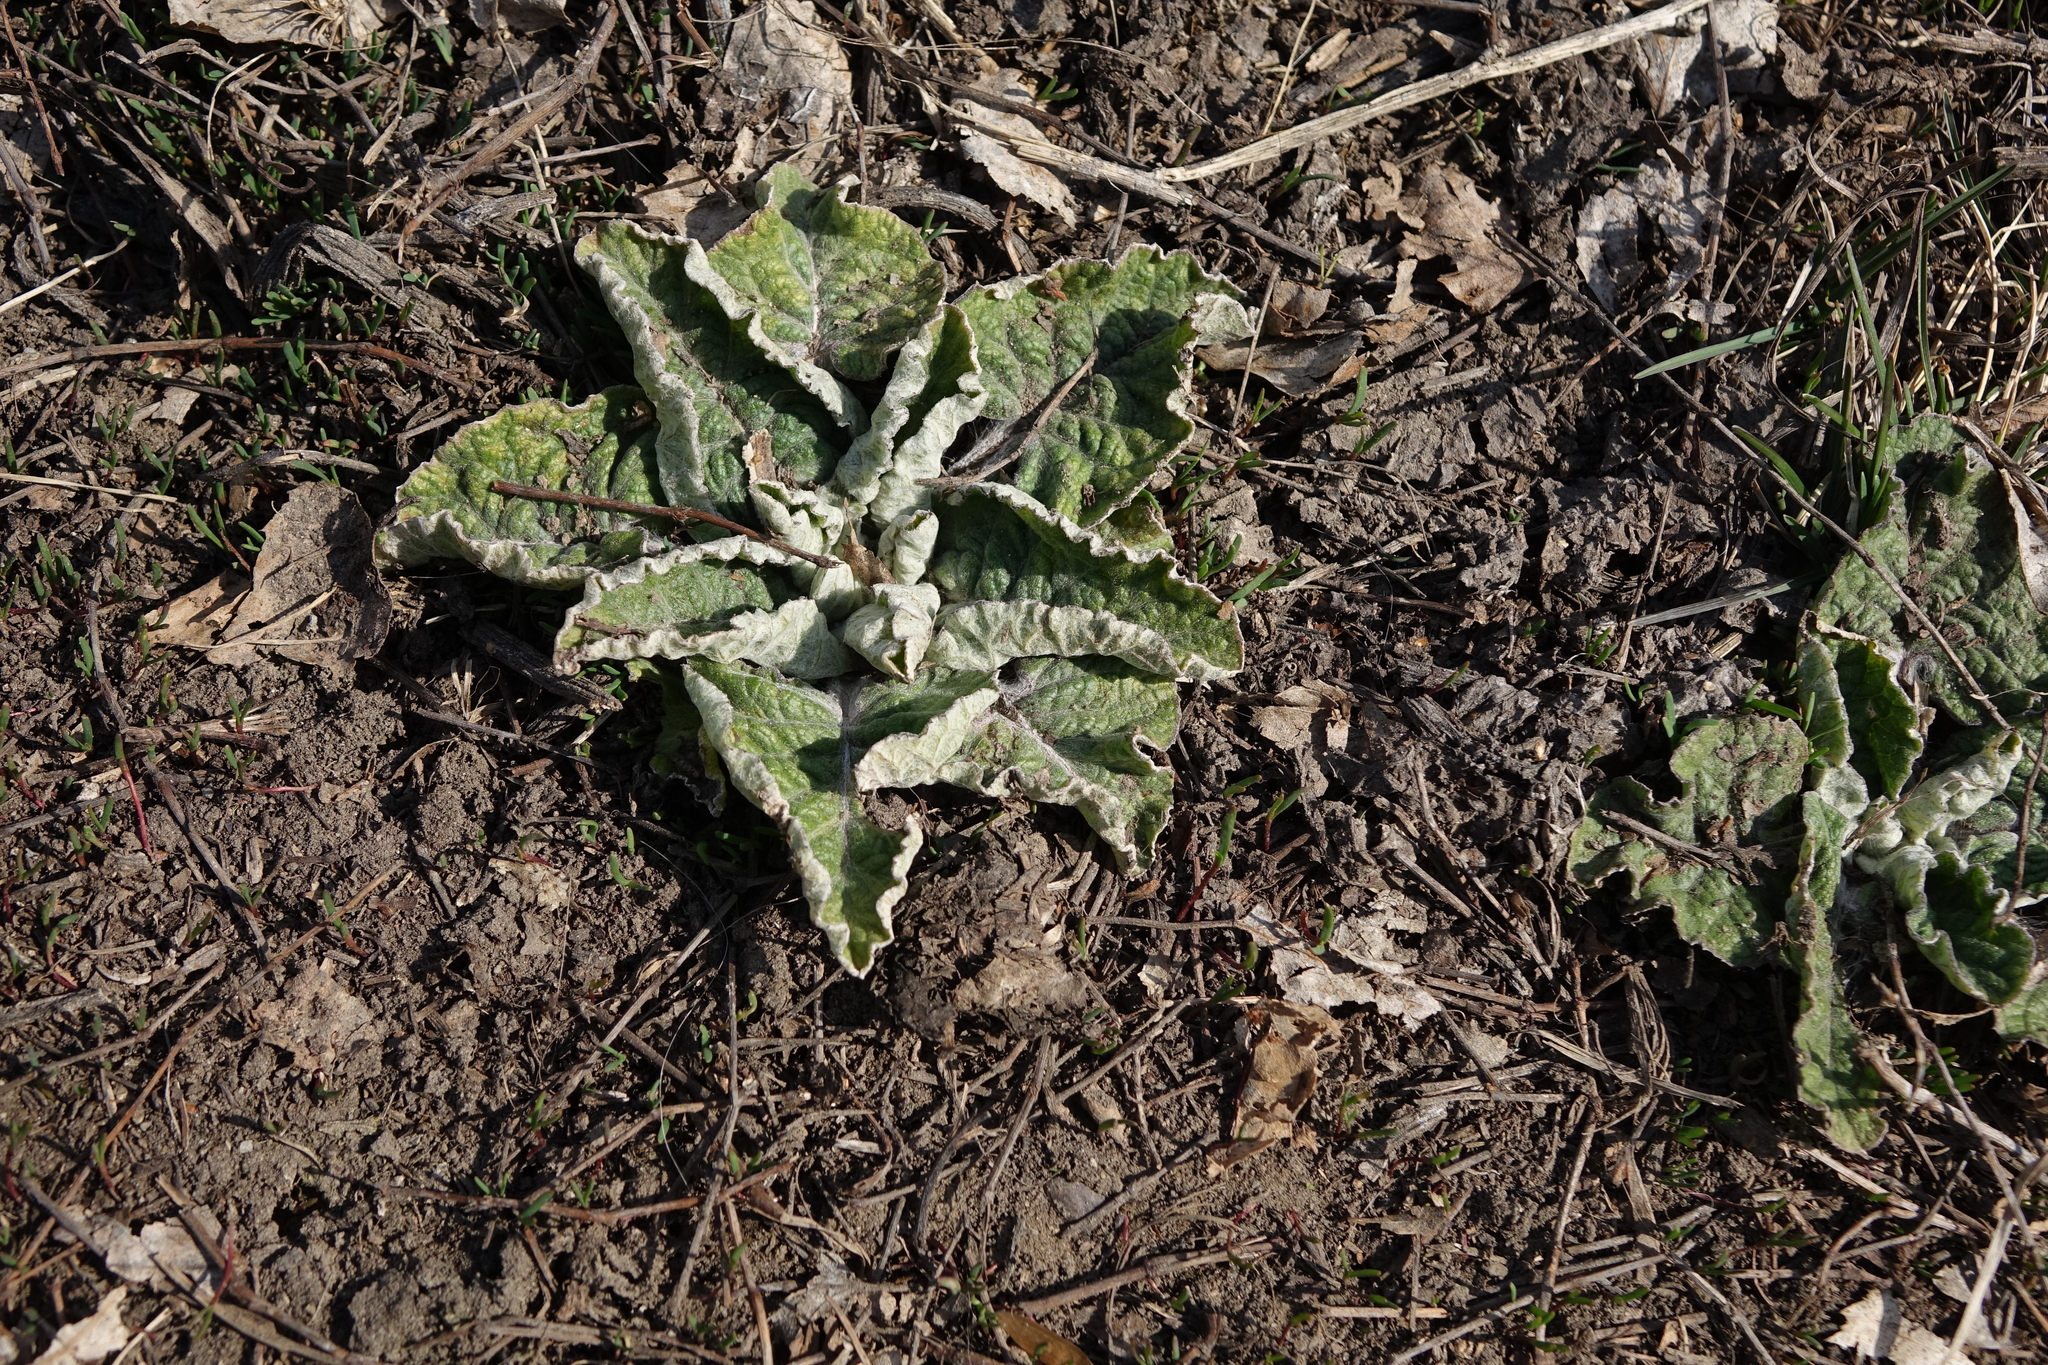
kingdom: Plantae
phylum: Tracheophyta
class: Magnoliopsida
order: Asterales
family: Asteraceae
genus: Arctium
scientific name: Arctium tomentosum
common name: Woolly burdock
